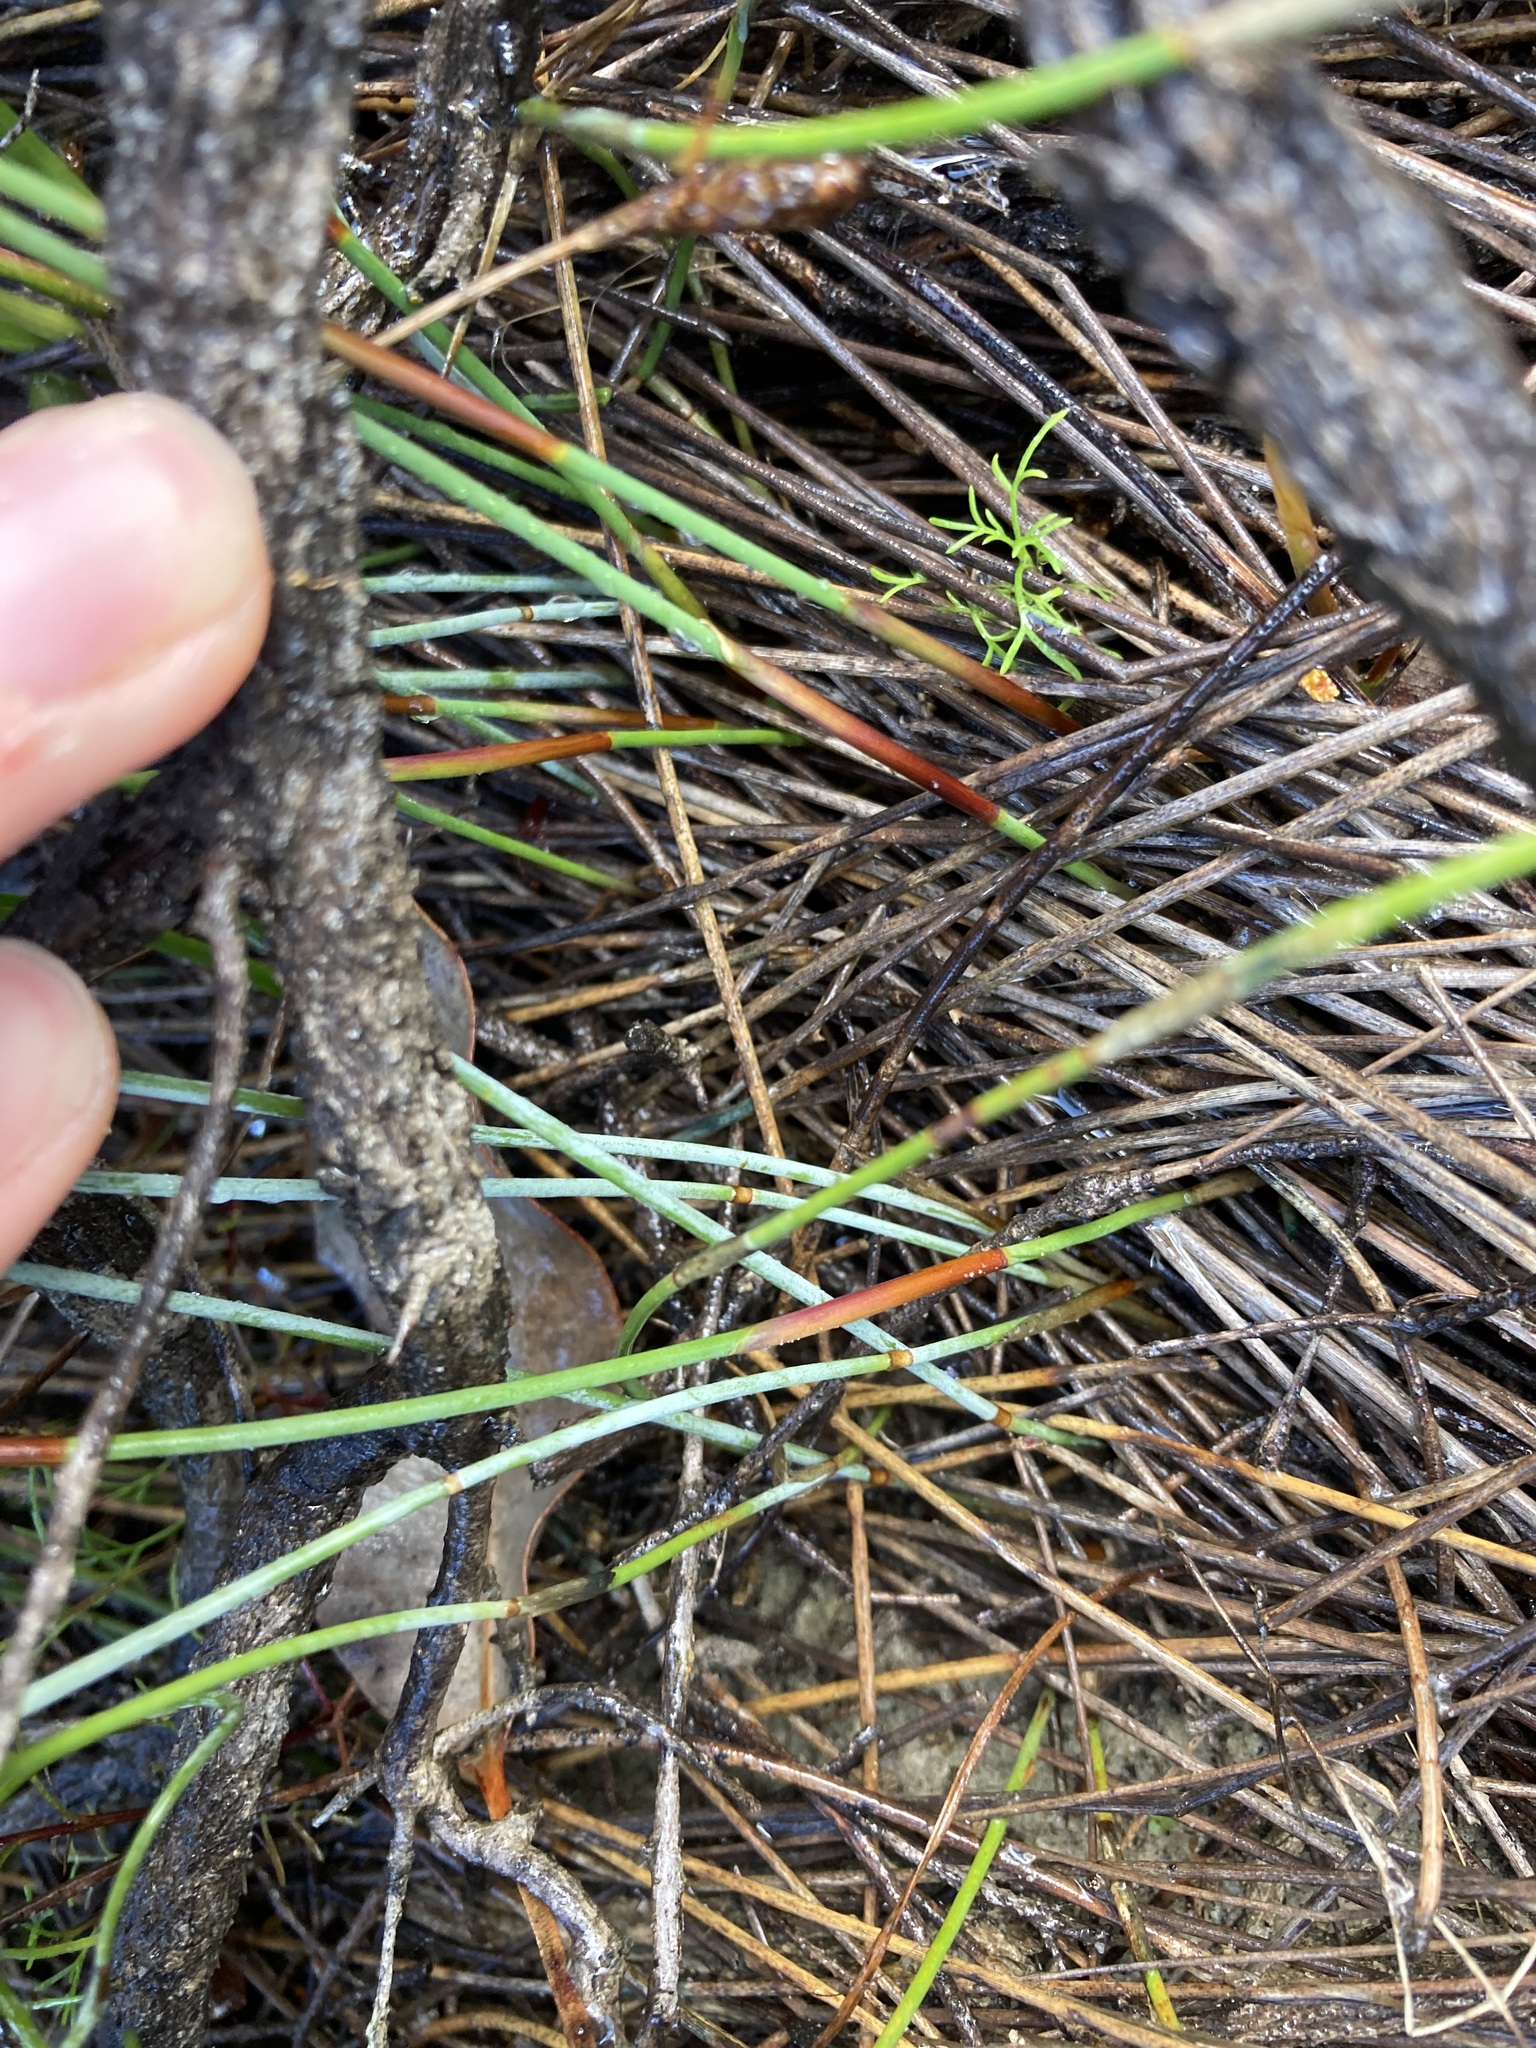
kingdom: Plantae
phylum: Tracheophyta
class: Liliopsida
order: Poales
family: Restionaceae
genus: Lepidobolus
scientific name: Lepidobolus chaetocephalus
